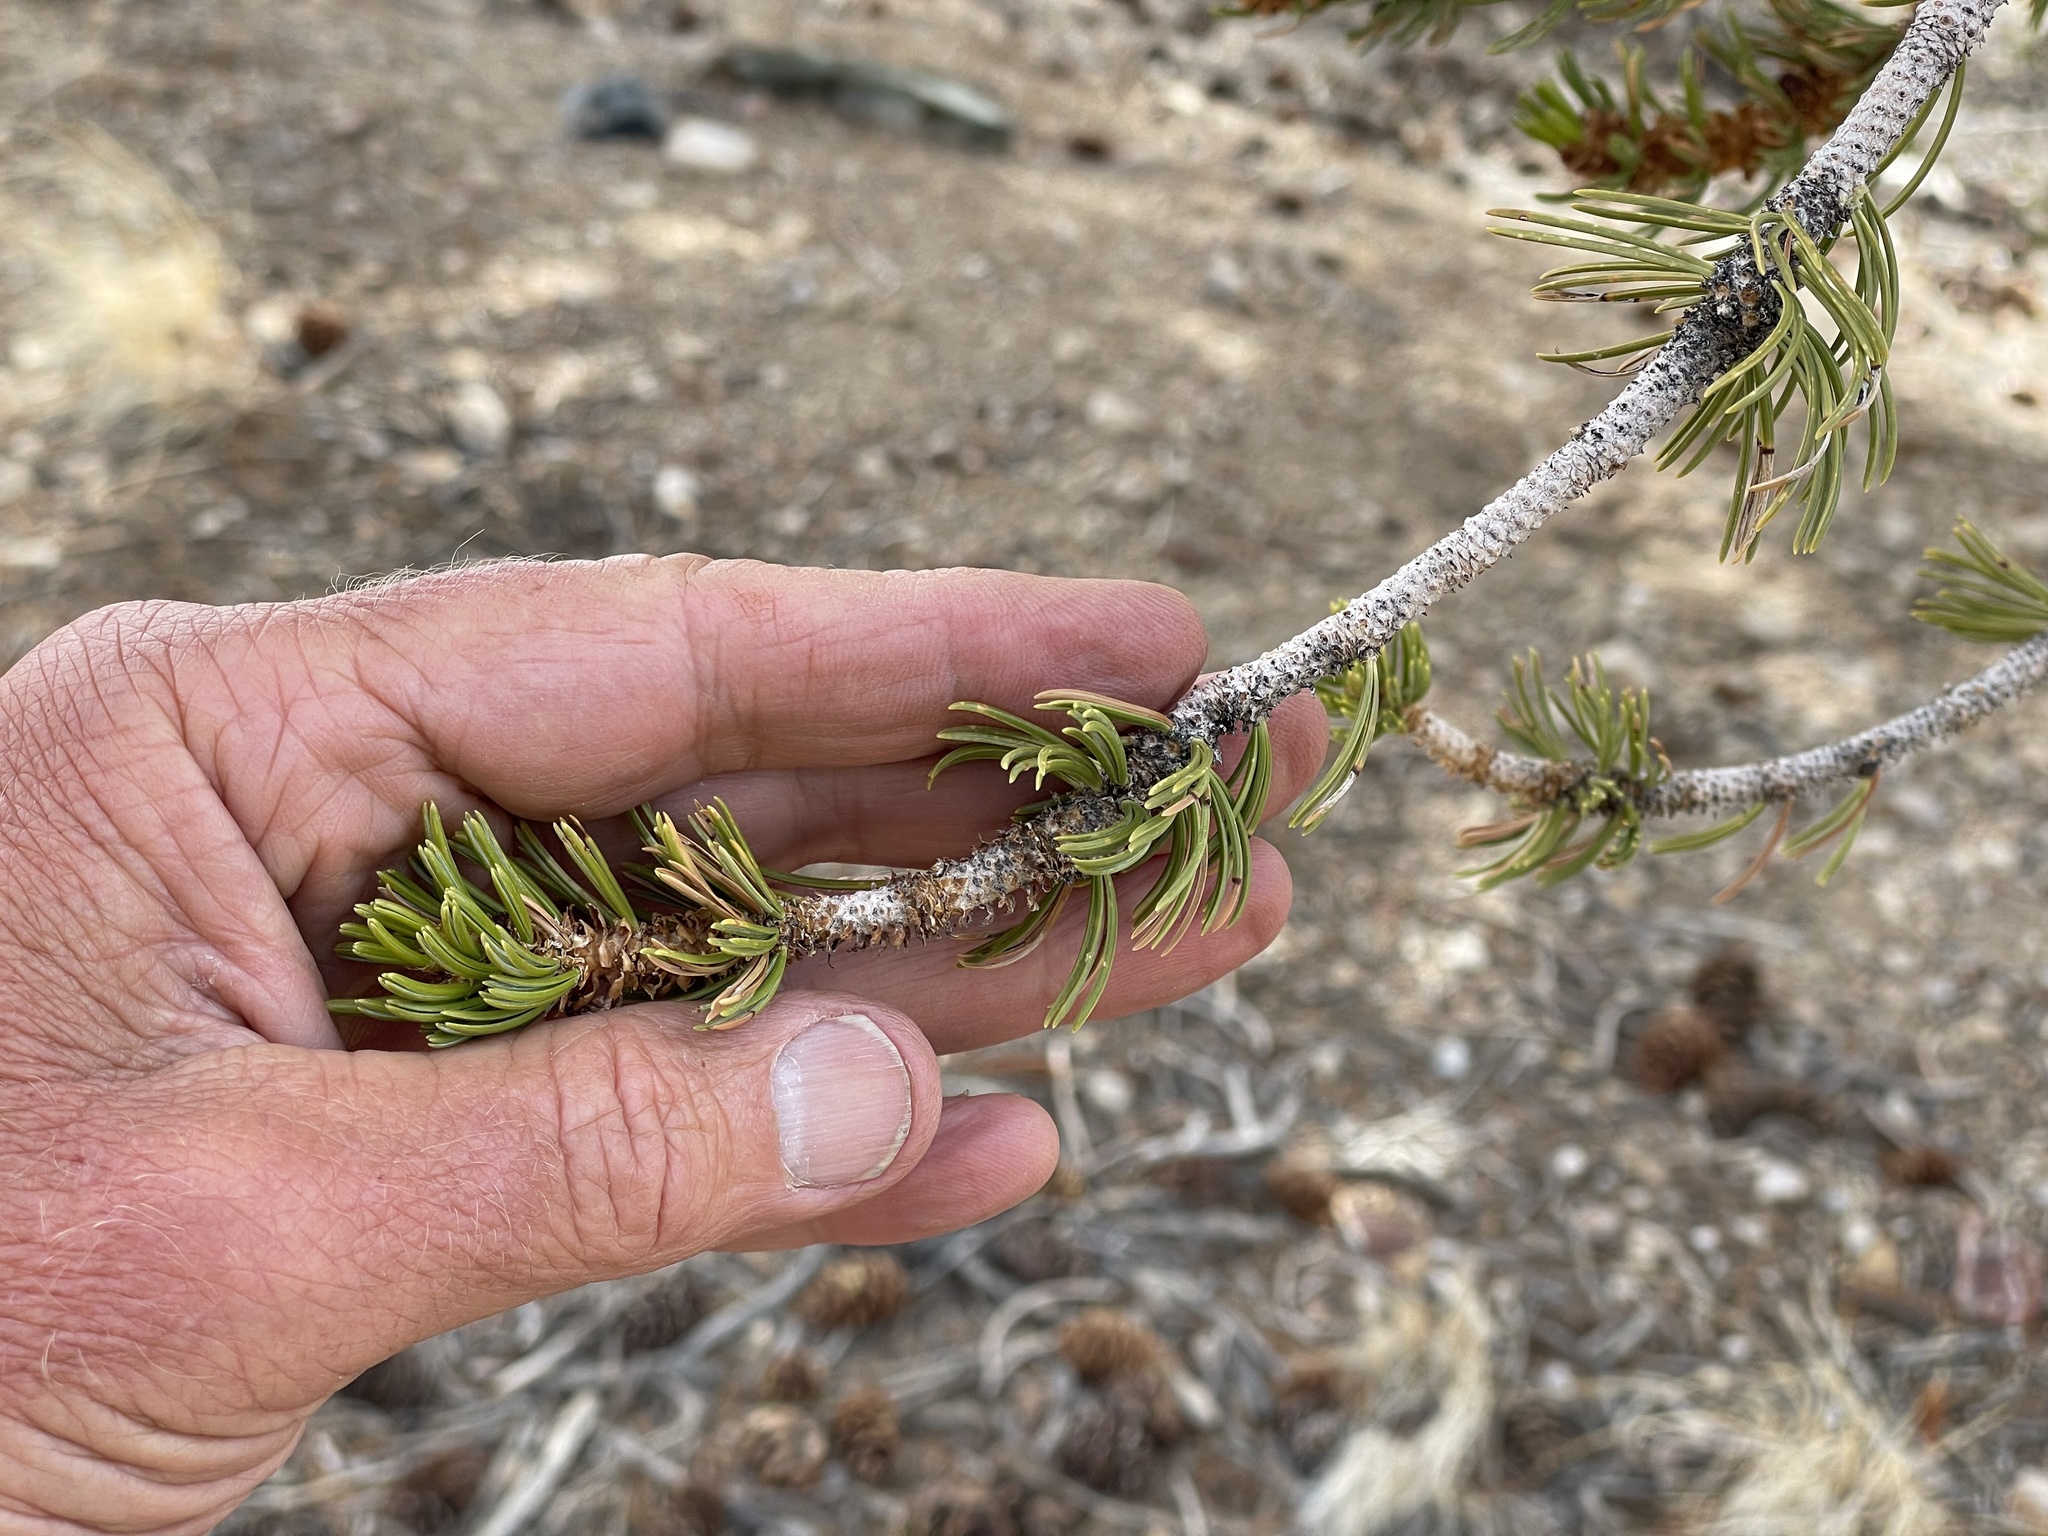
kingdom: Plantae
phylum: Tracheophyta
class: Pinopsida
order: Pinales
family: Pinaceae
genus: Pinus
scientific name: Pinus longaeva
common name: Intermountain bristlecone pine
